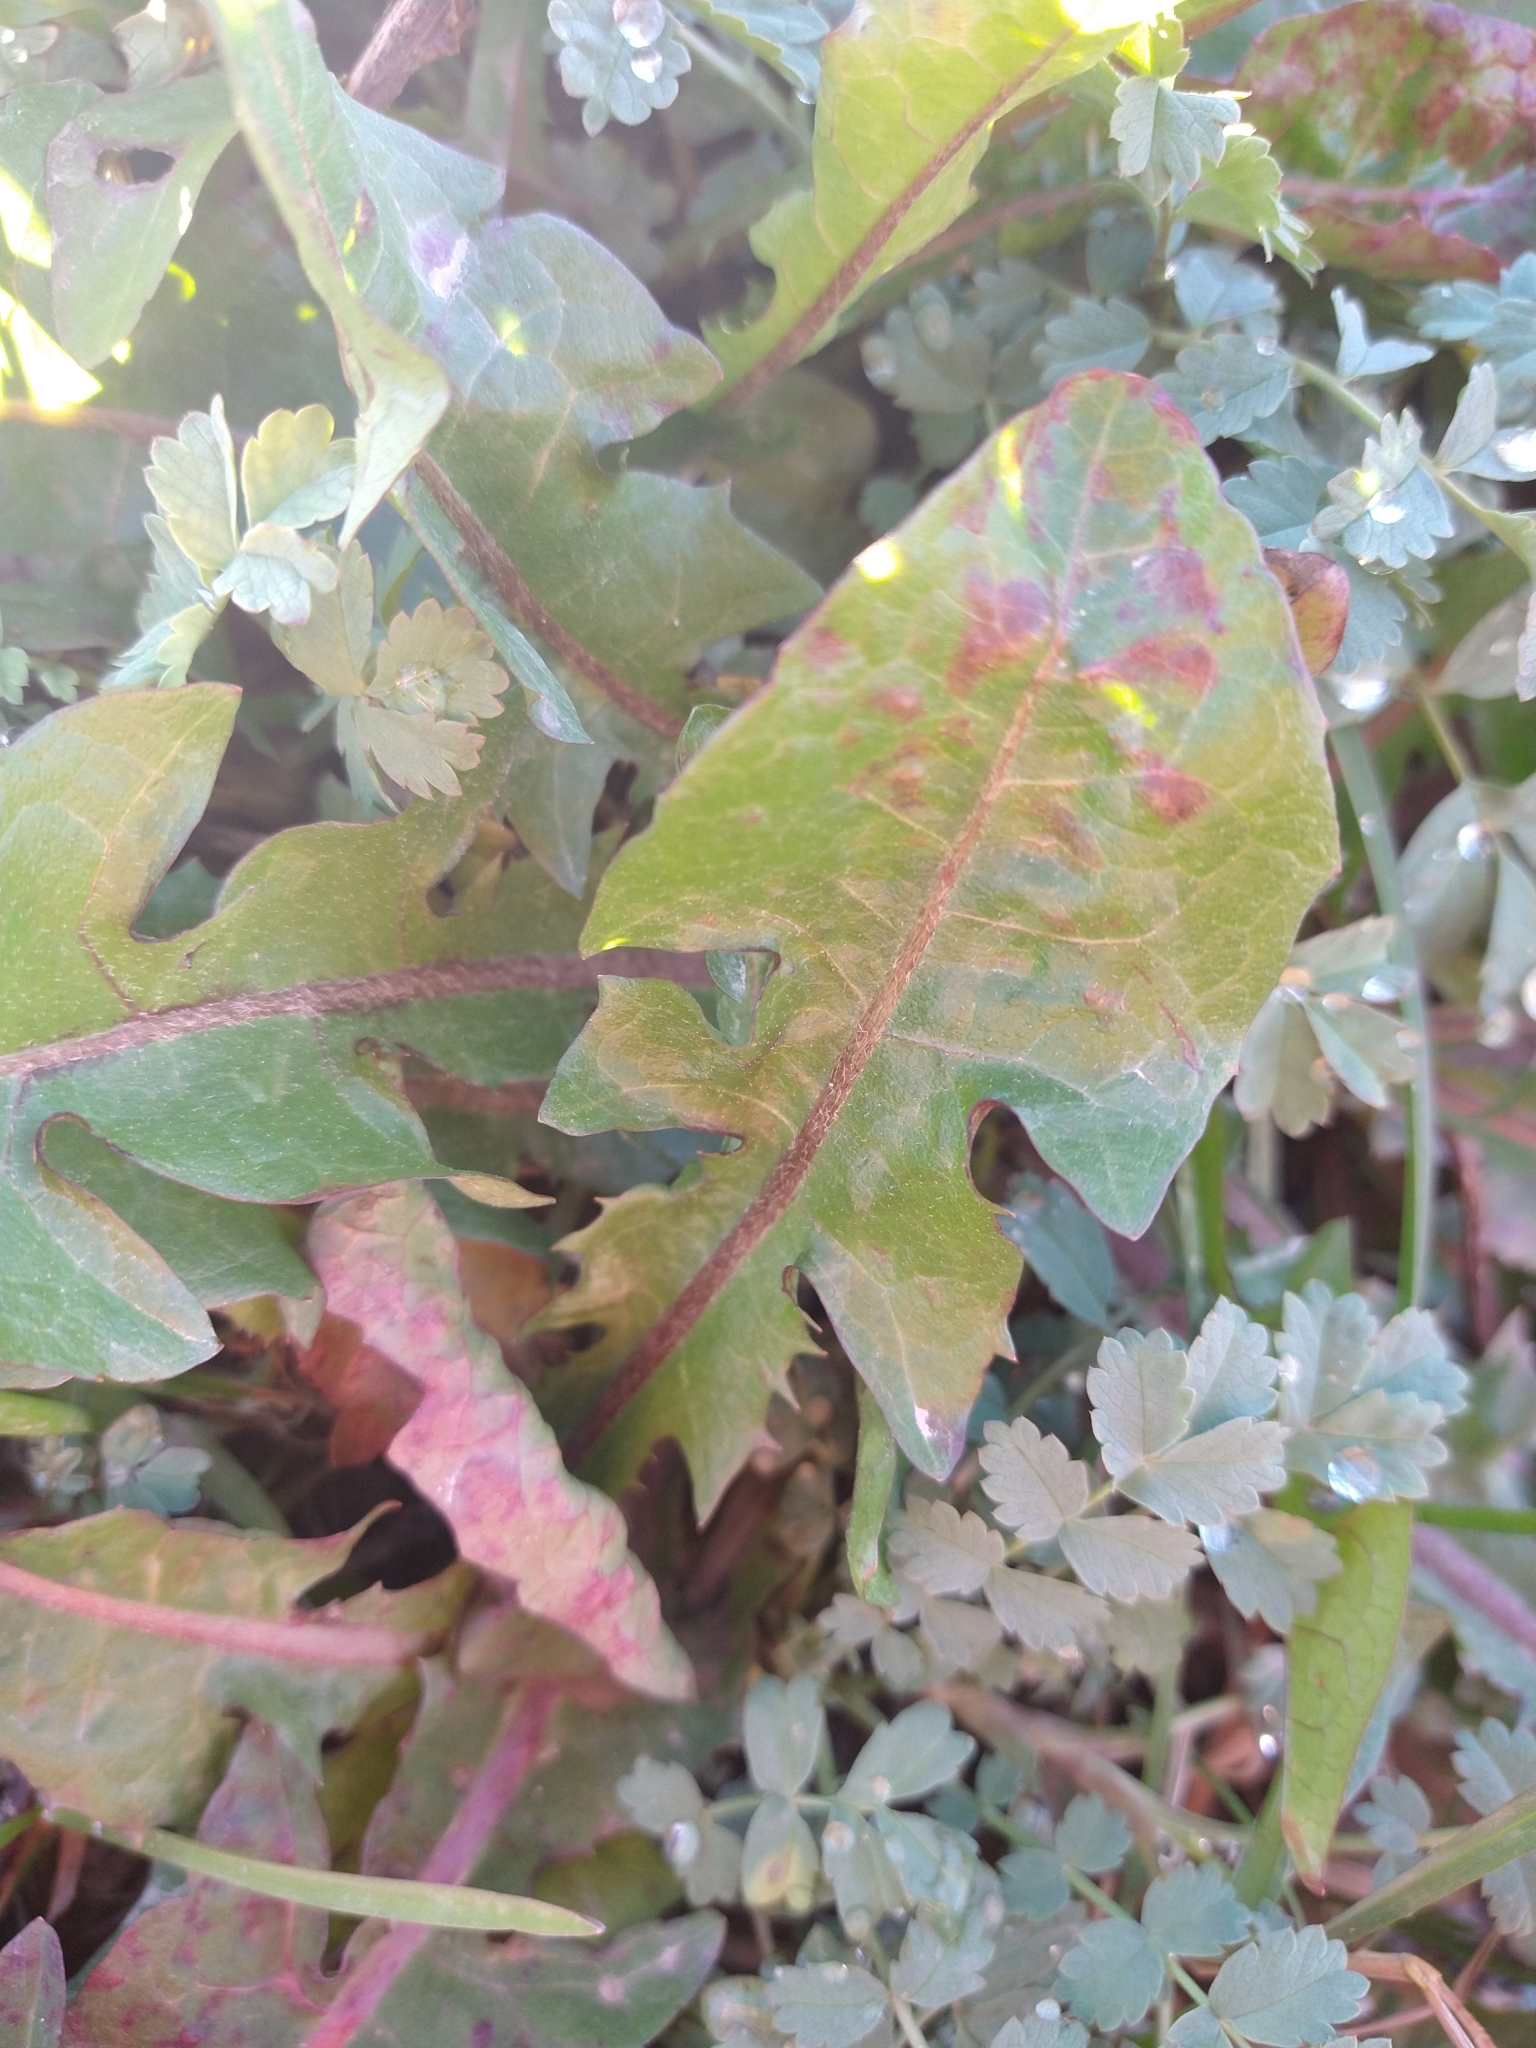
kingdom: Plantae
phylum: Tracheophyta
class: Magnoliopsida
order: Asterales
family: Asteraceae
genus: Taraxacum
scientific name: Taraxacum
